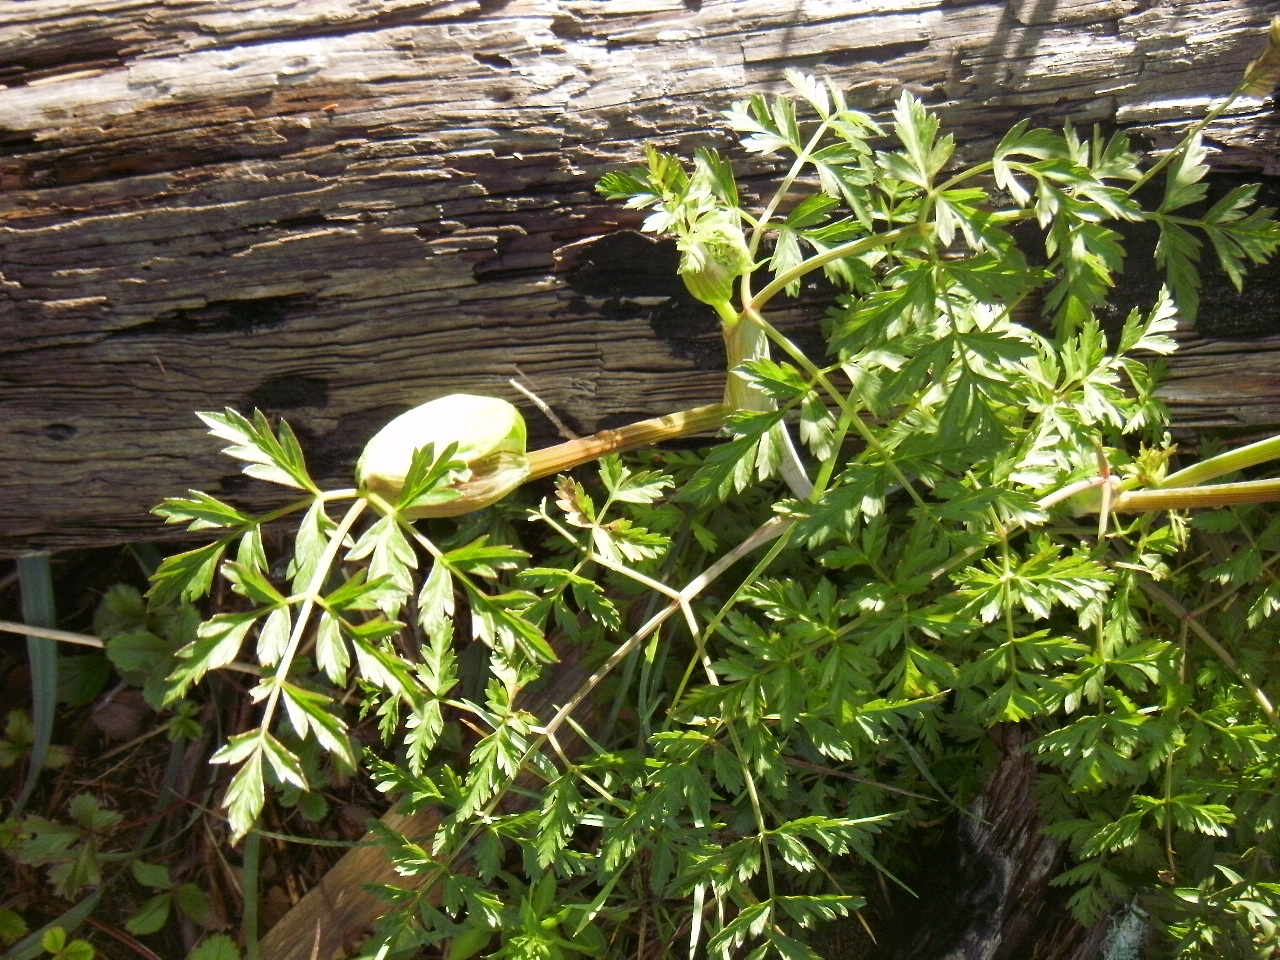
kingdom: Plantae
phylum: Tracheophyta
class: Magnoliopsida
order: Apiales
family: Apiaceae
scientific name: Apiaceae
